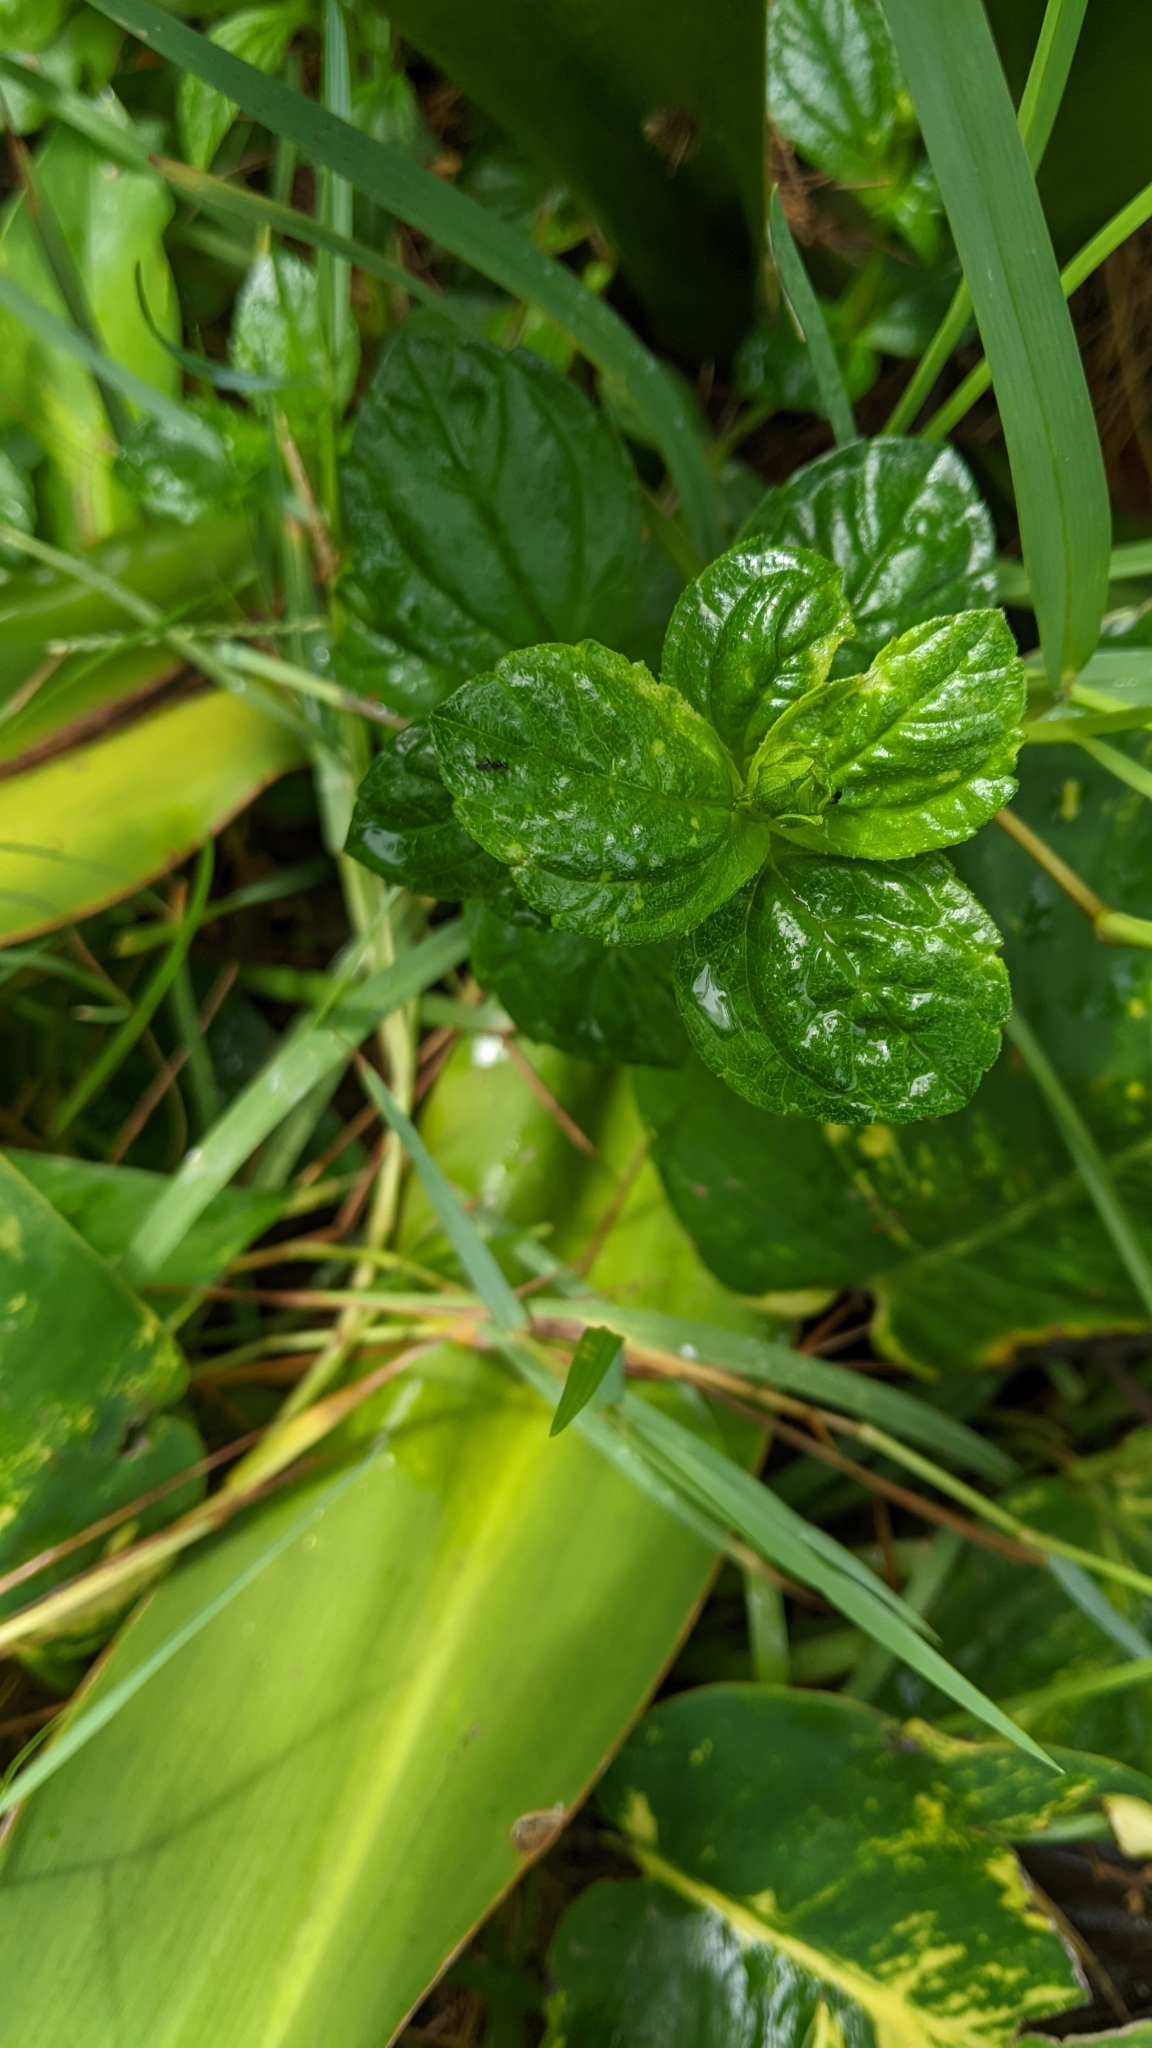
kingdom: Plantae
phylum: Tracheophyta
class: Magnoliopsida
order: Asterales
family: Asteraceae
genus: Sphagneticola
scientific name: Sphagneticola trilobata
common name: Bay biscayne creeping-oxeye
